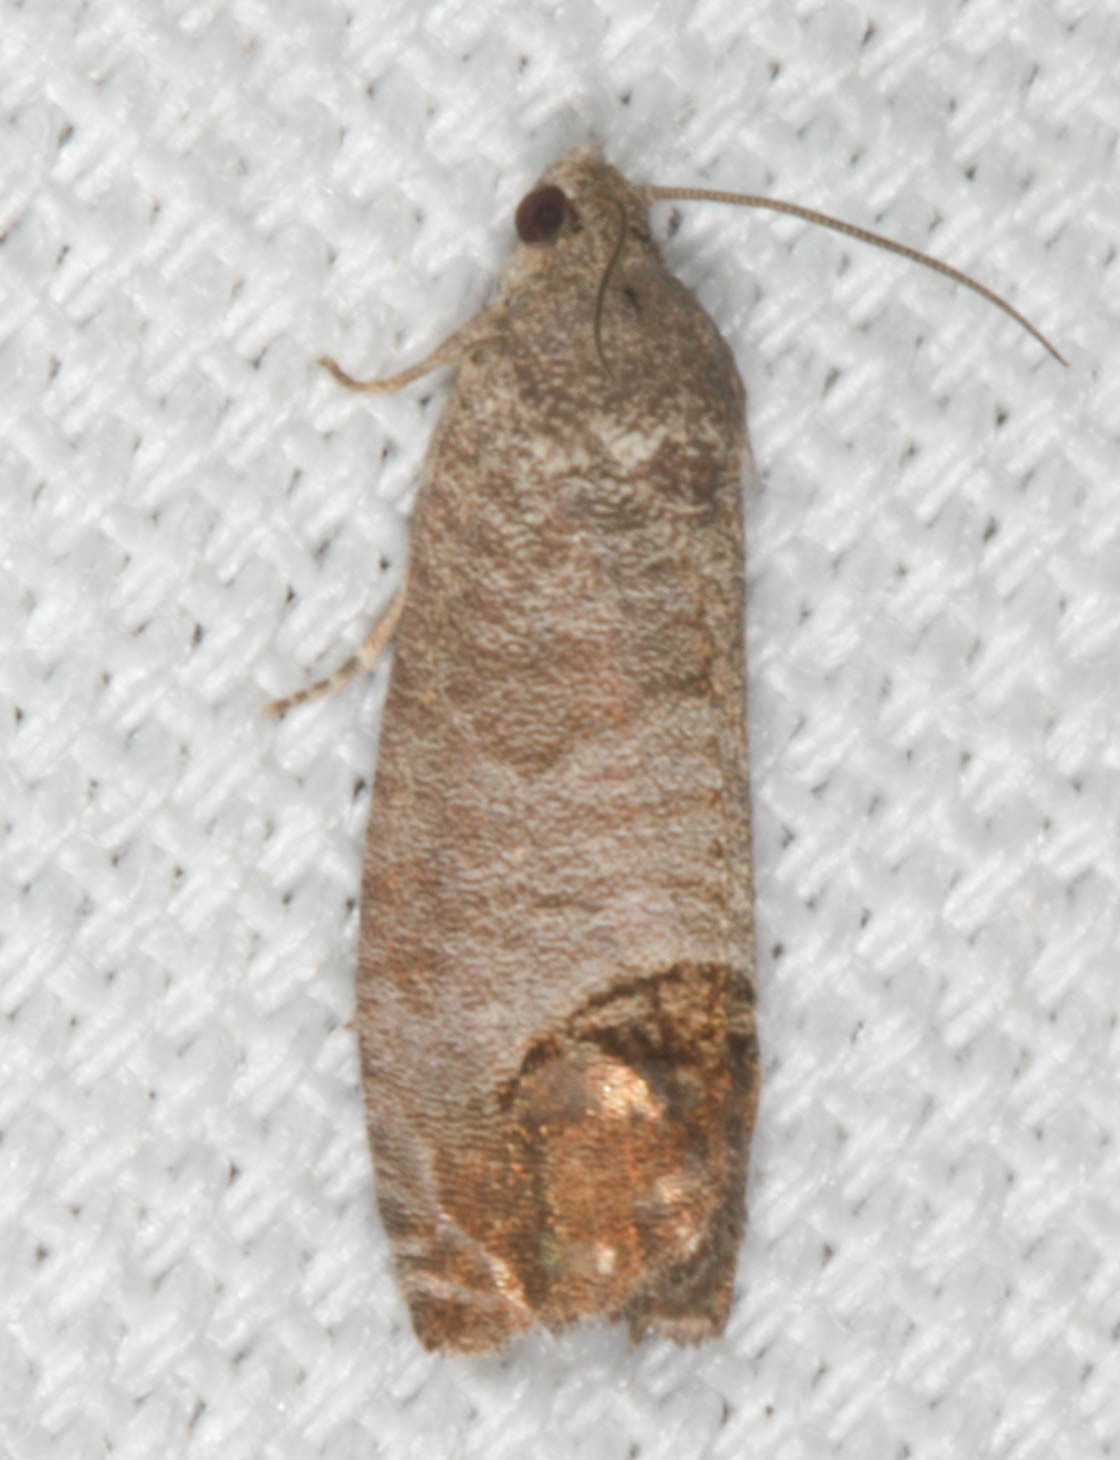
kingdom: Animalia
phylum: Arthropoda
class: Insecta
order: Lepidoptera
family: Tortricidae
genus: Cydia
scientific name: Cydia pomonella
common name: Codling moth
